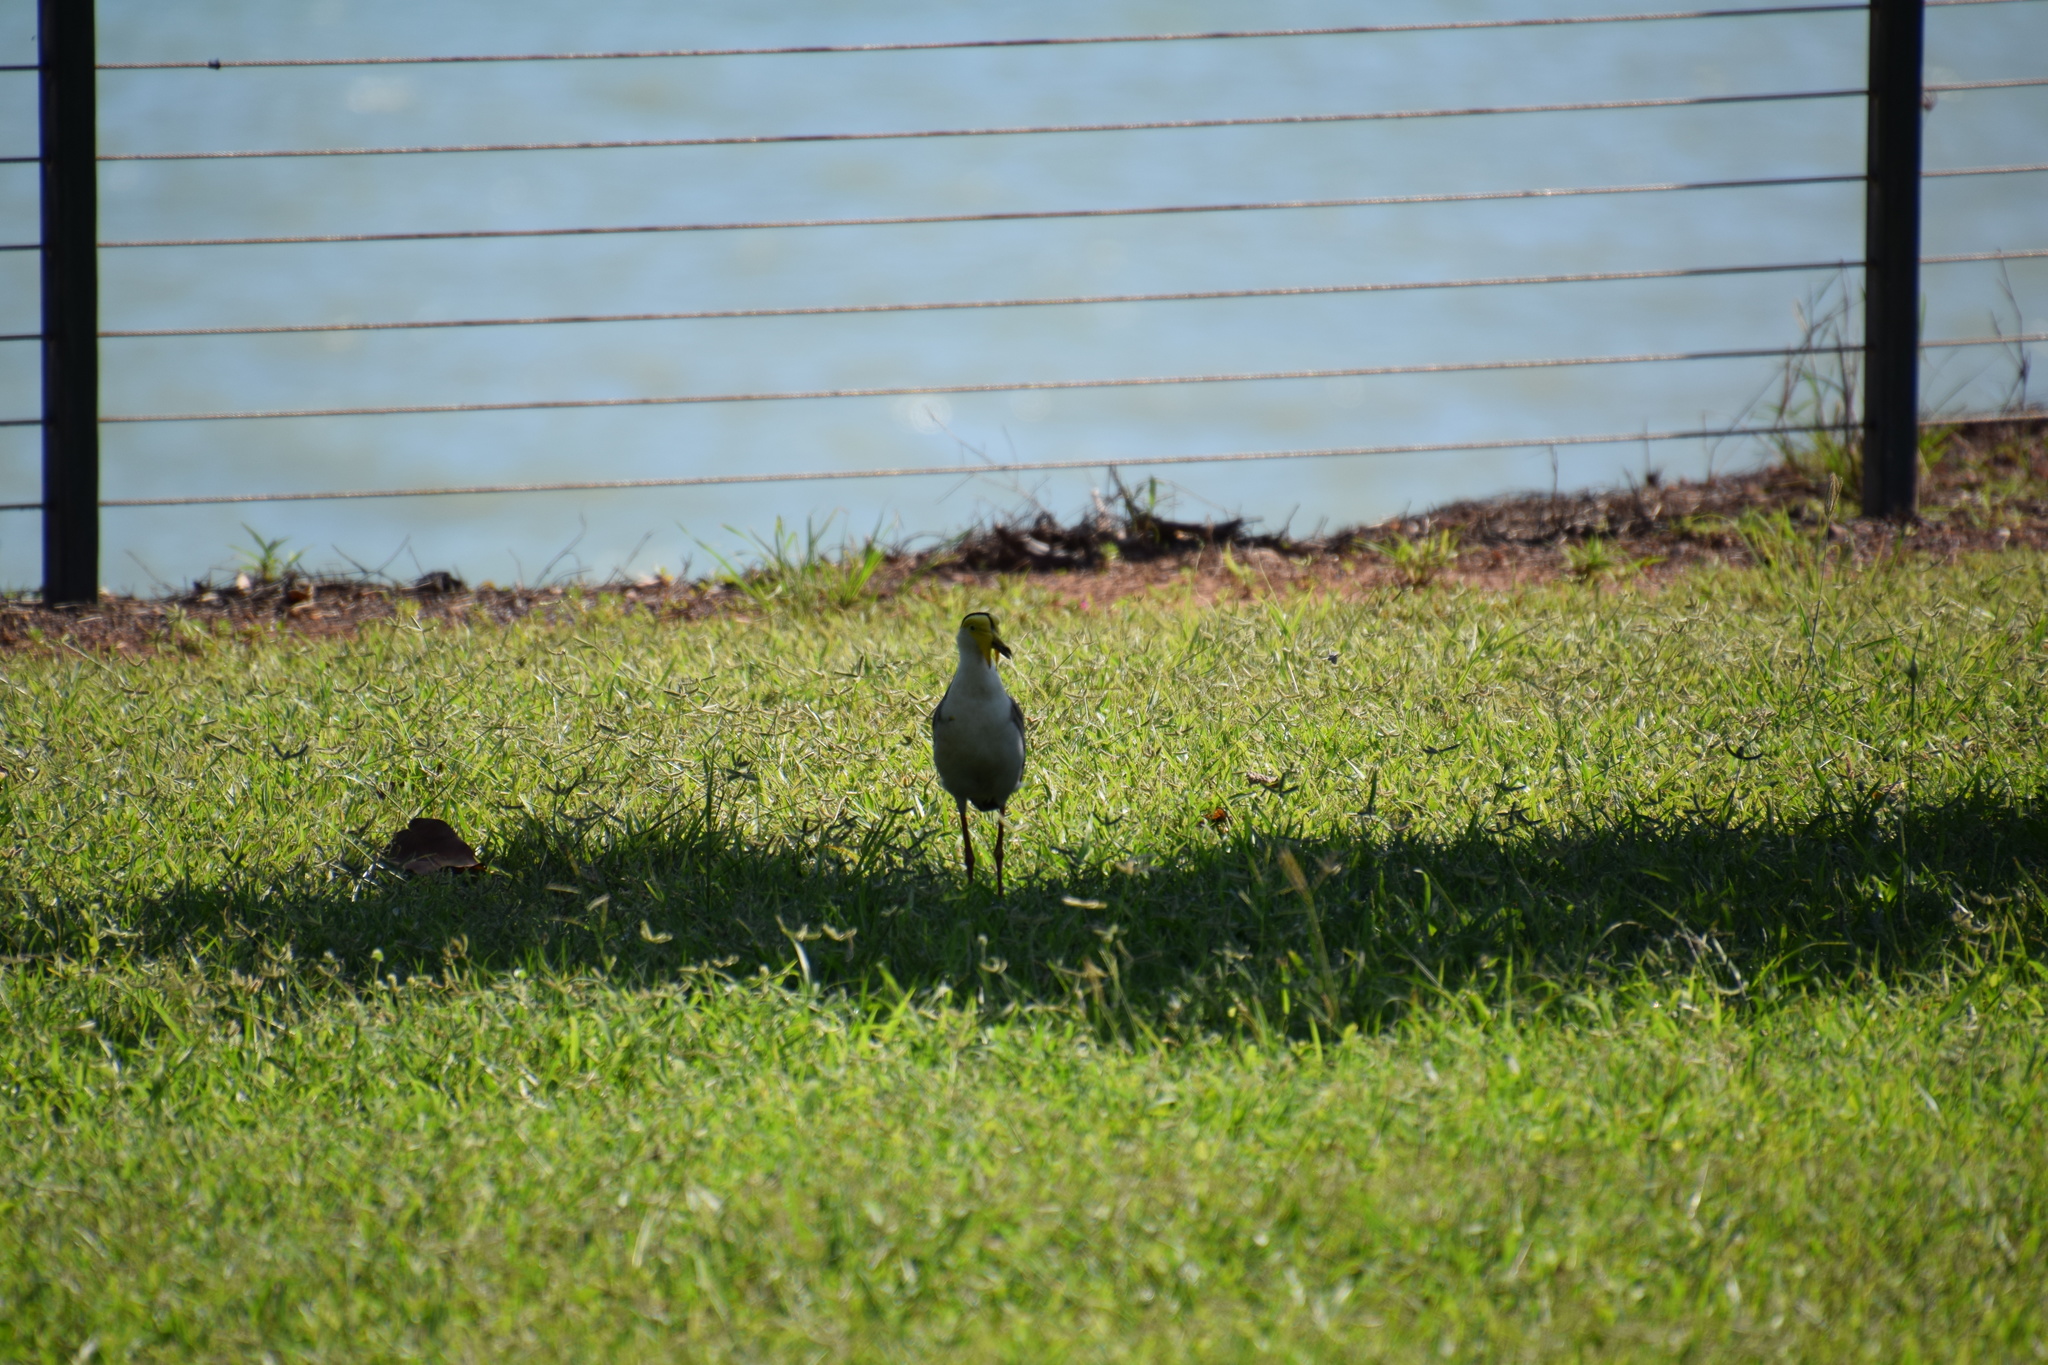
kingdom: Animalia
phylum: Chordata
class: Aves
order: Charadriiformes
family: Charadriidae
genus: Vanellus
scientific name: Vanellus miles
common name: Masked lapwing
